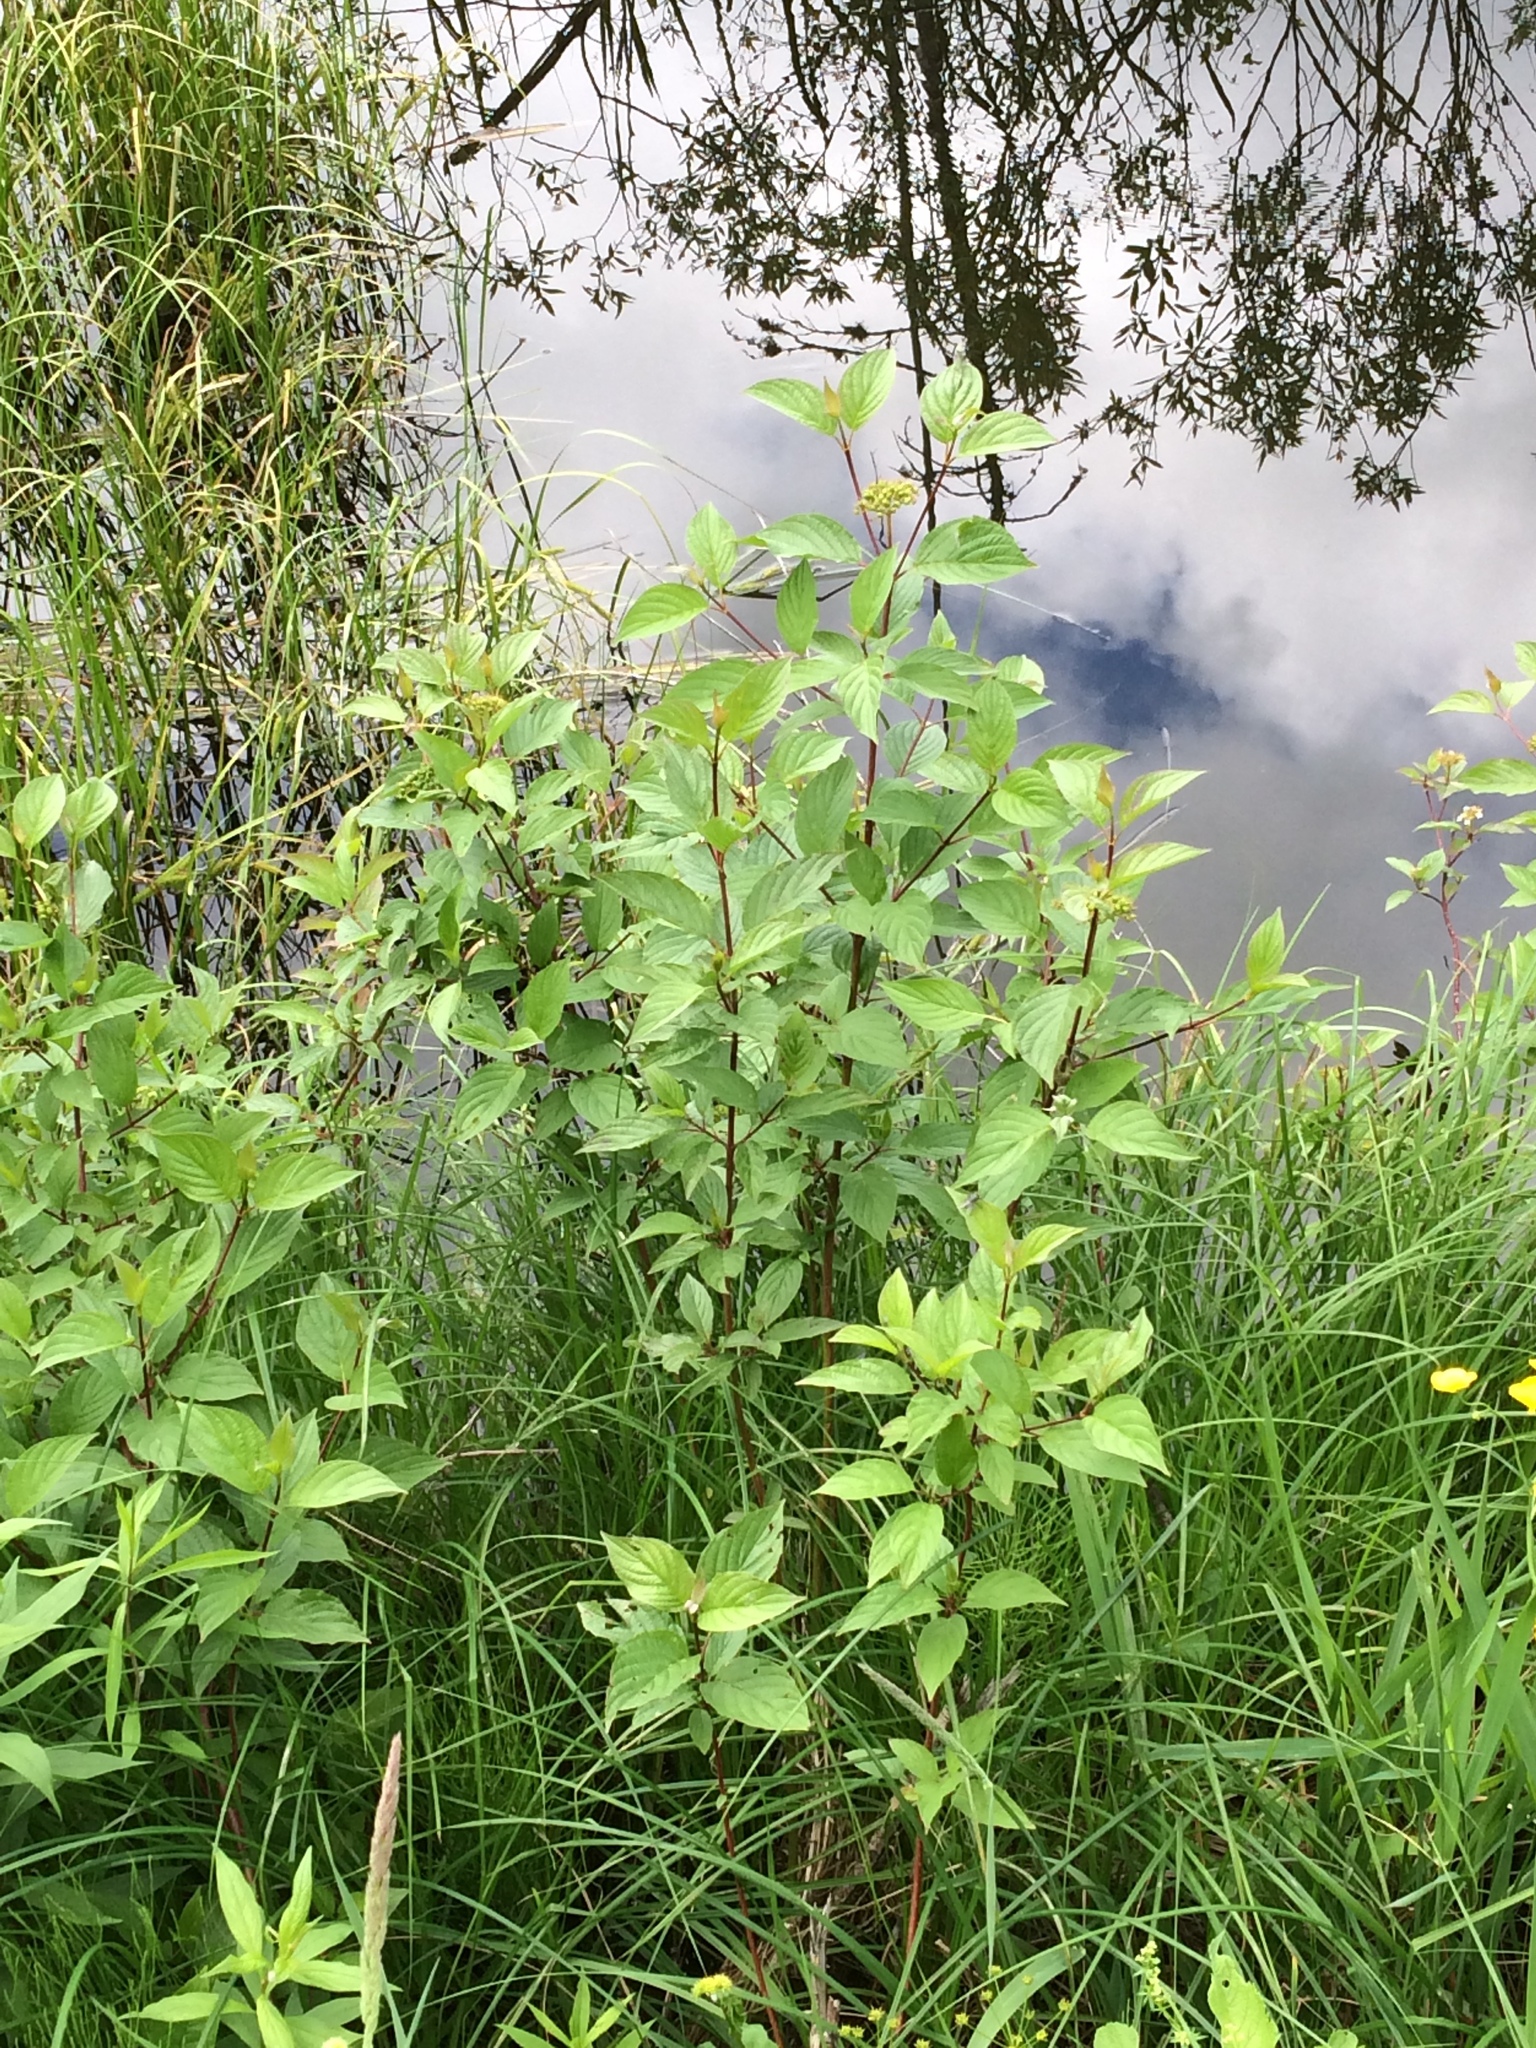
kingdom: Plantae
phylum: Tracheophyta
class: Magnoliopsida
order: Cornales
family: Cornaceae
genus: Cornus
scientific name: Cornus sericea
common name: Red-osier dogwood
